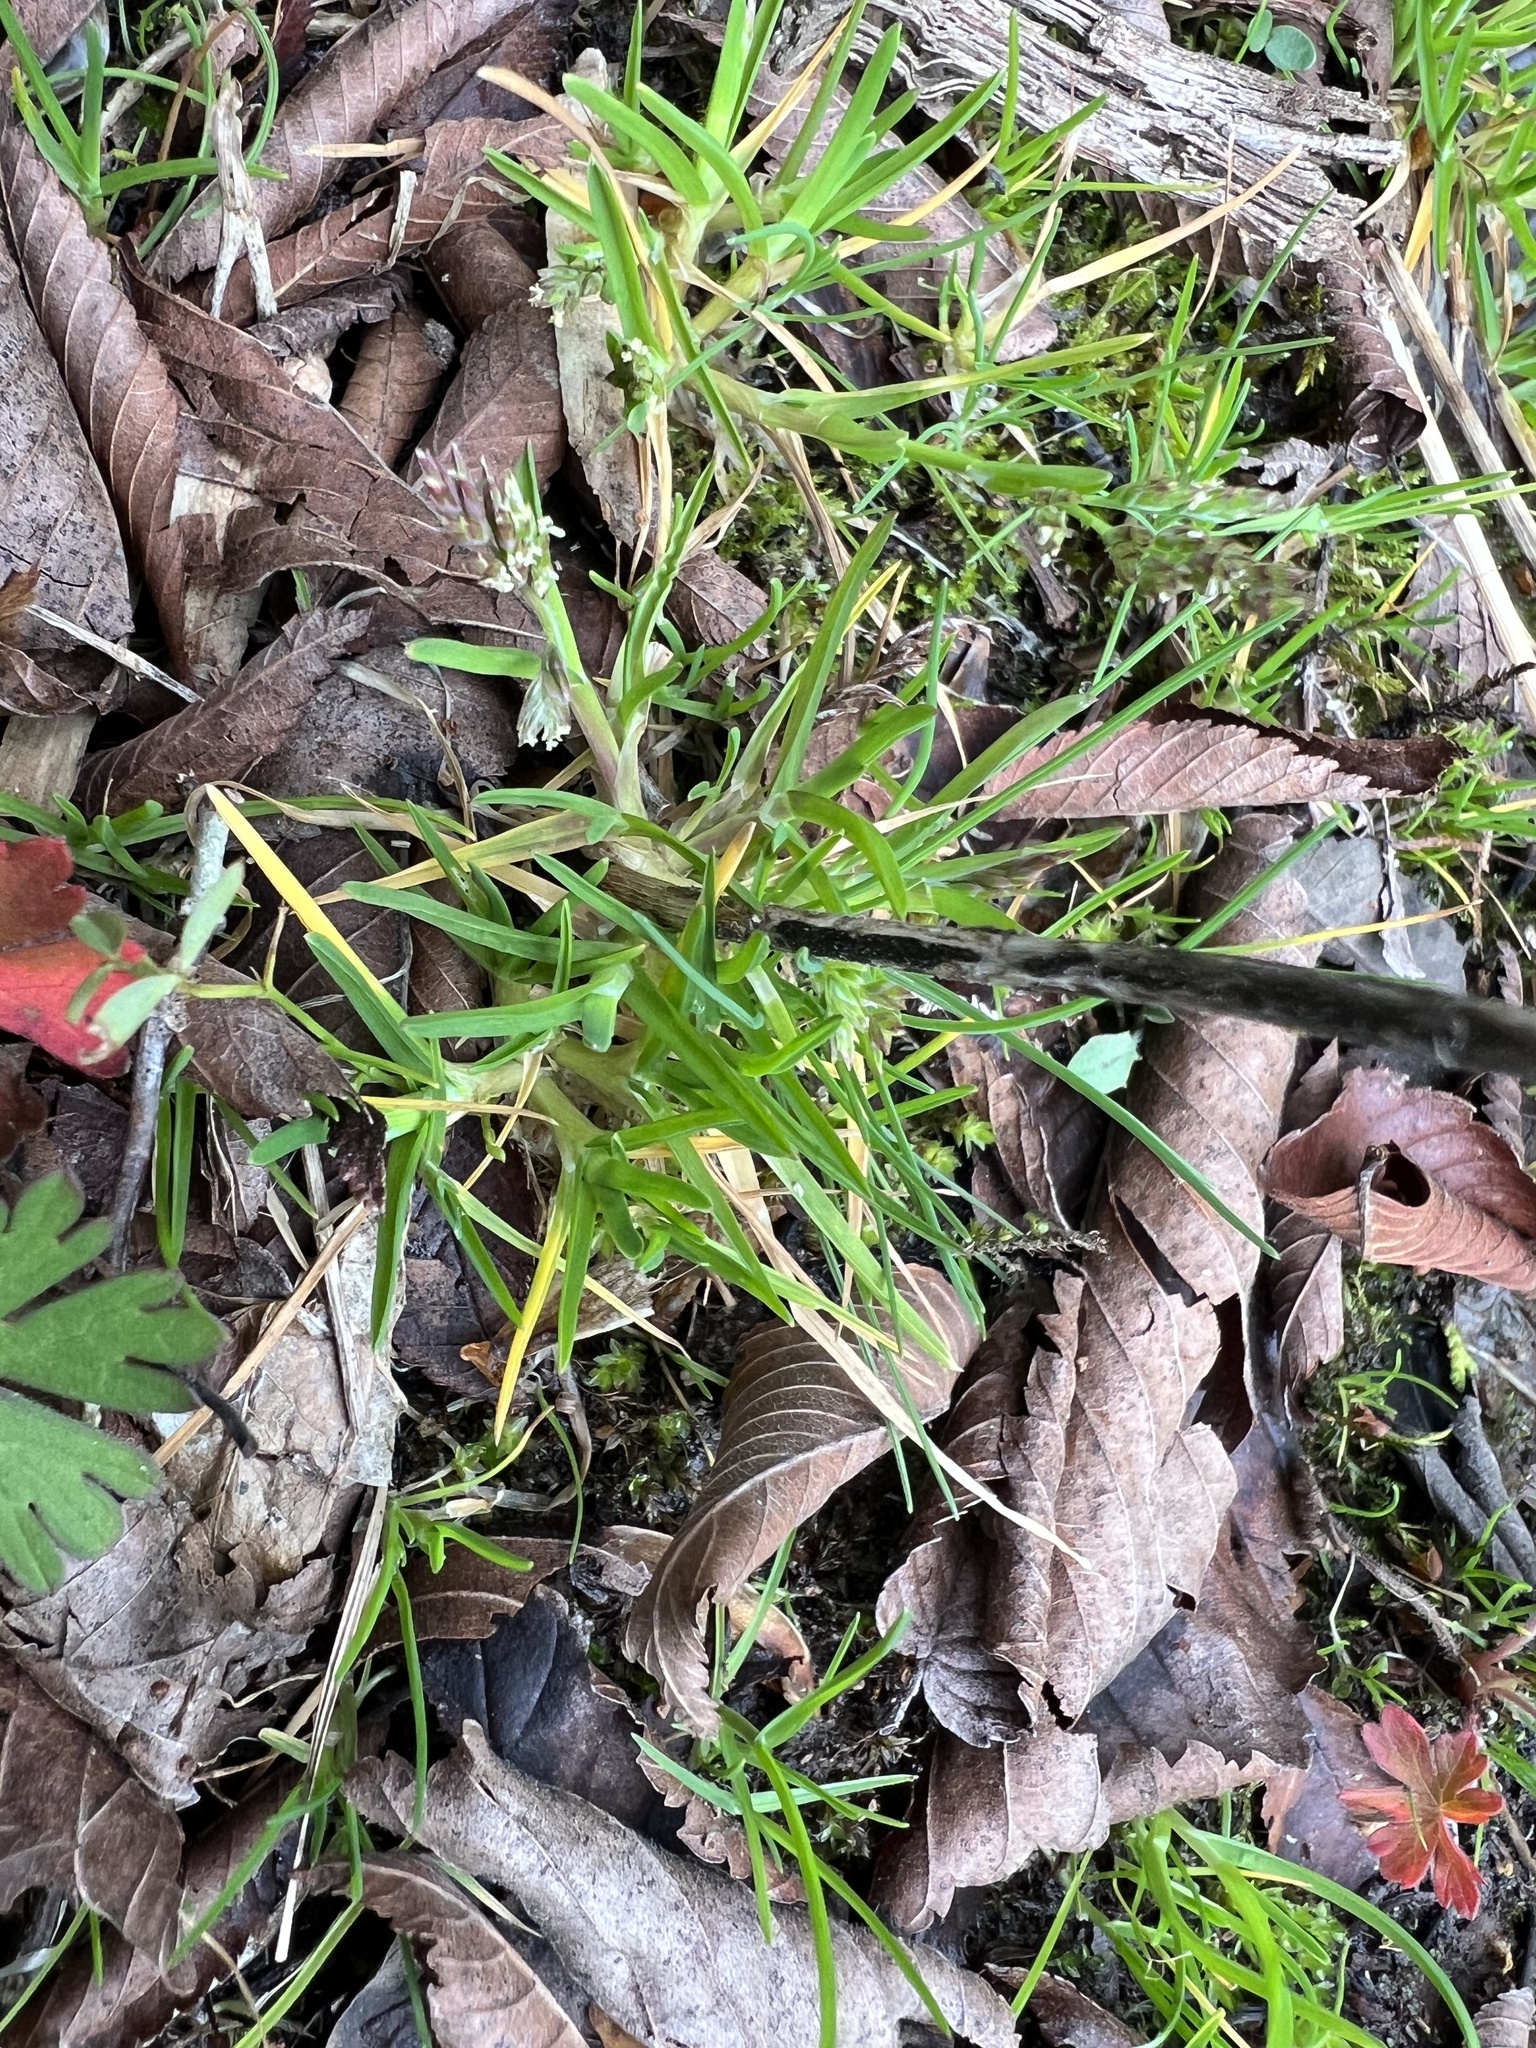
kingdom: Plantae
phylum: Tracheophyta
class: Liliopsida
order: Poales
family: Poaceae
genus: Poa
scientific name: Poa annua
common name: Annual bluegrass
